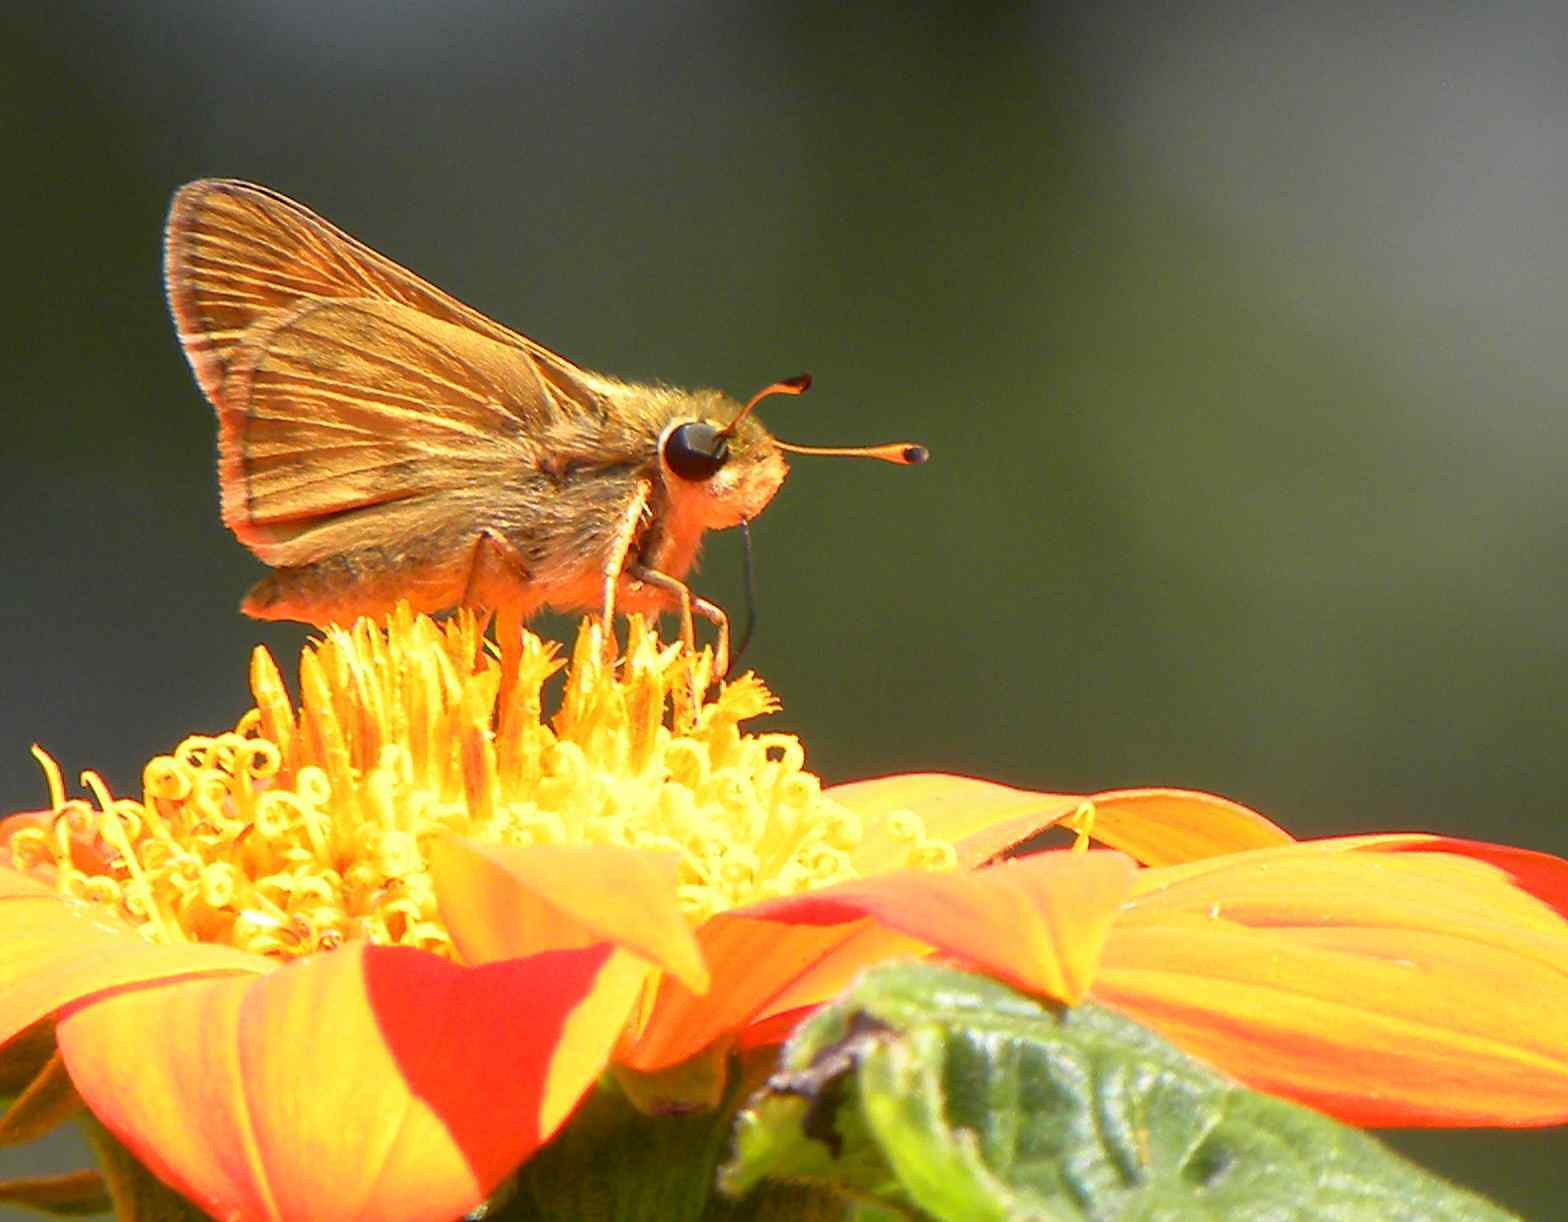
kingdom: Animalia
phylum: Arthropoda
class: Insecta
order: Lepidoptera
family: Hesperiidae
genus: Atalopedes
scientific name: Atalopedes
